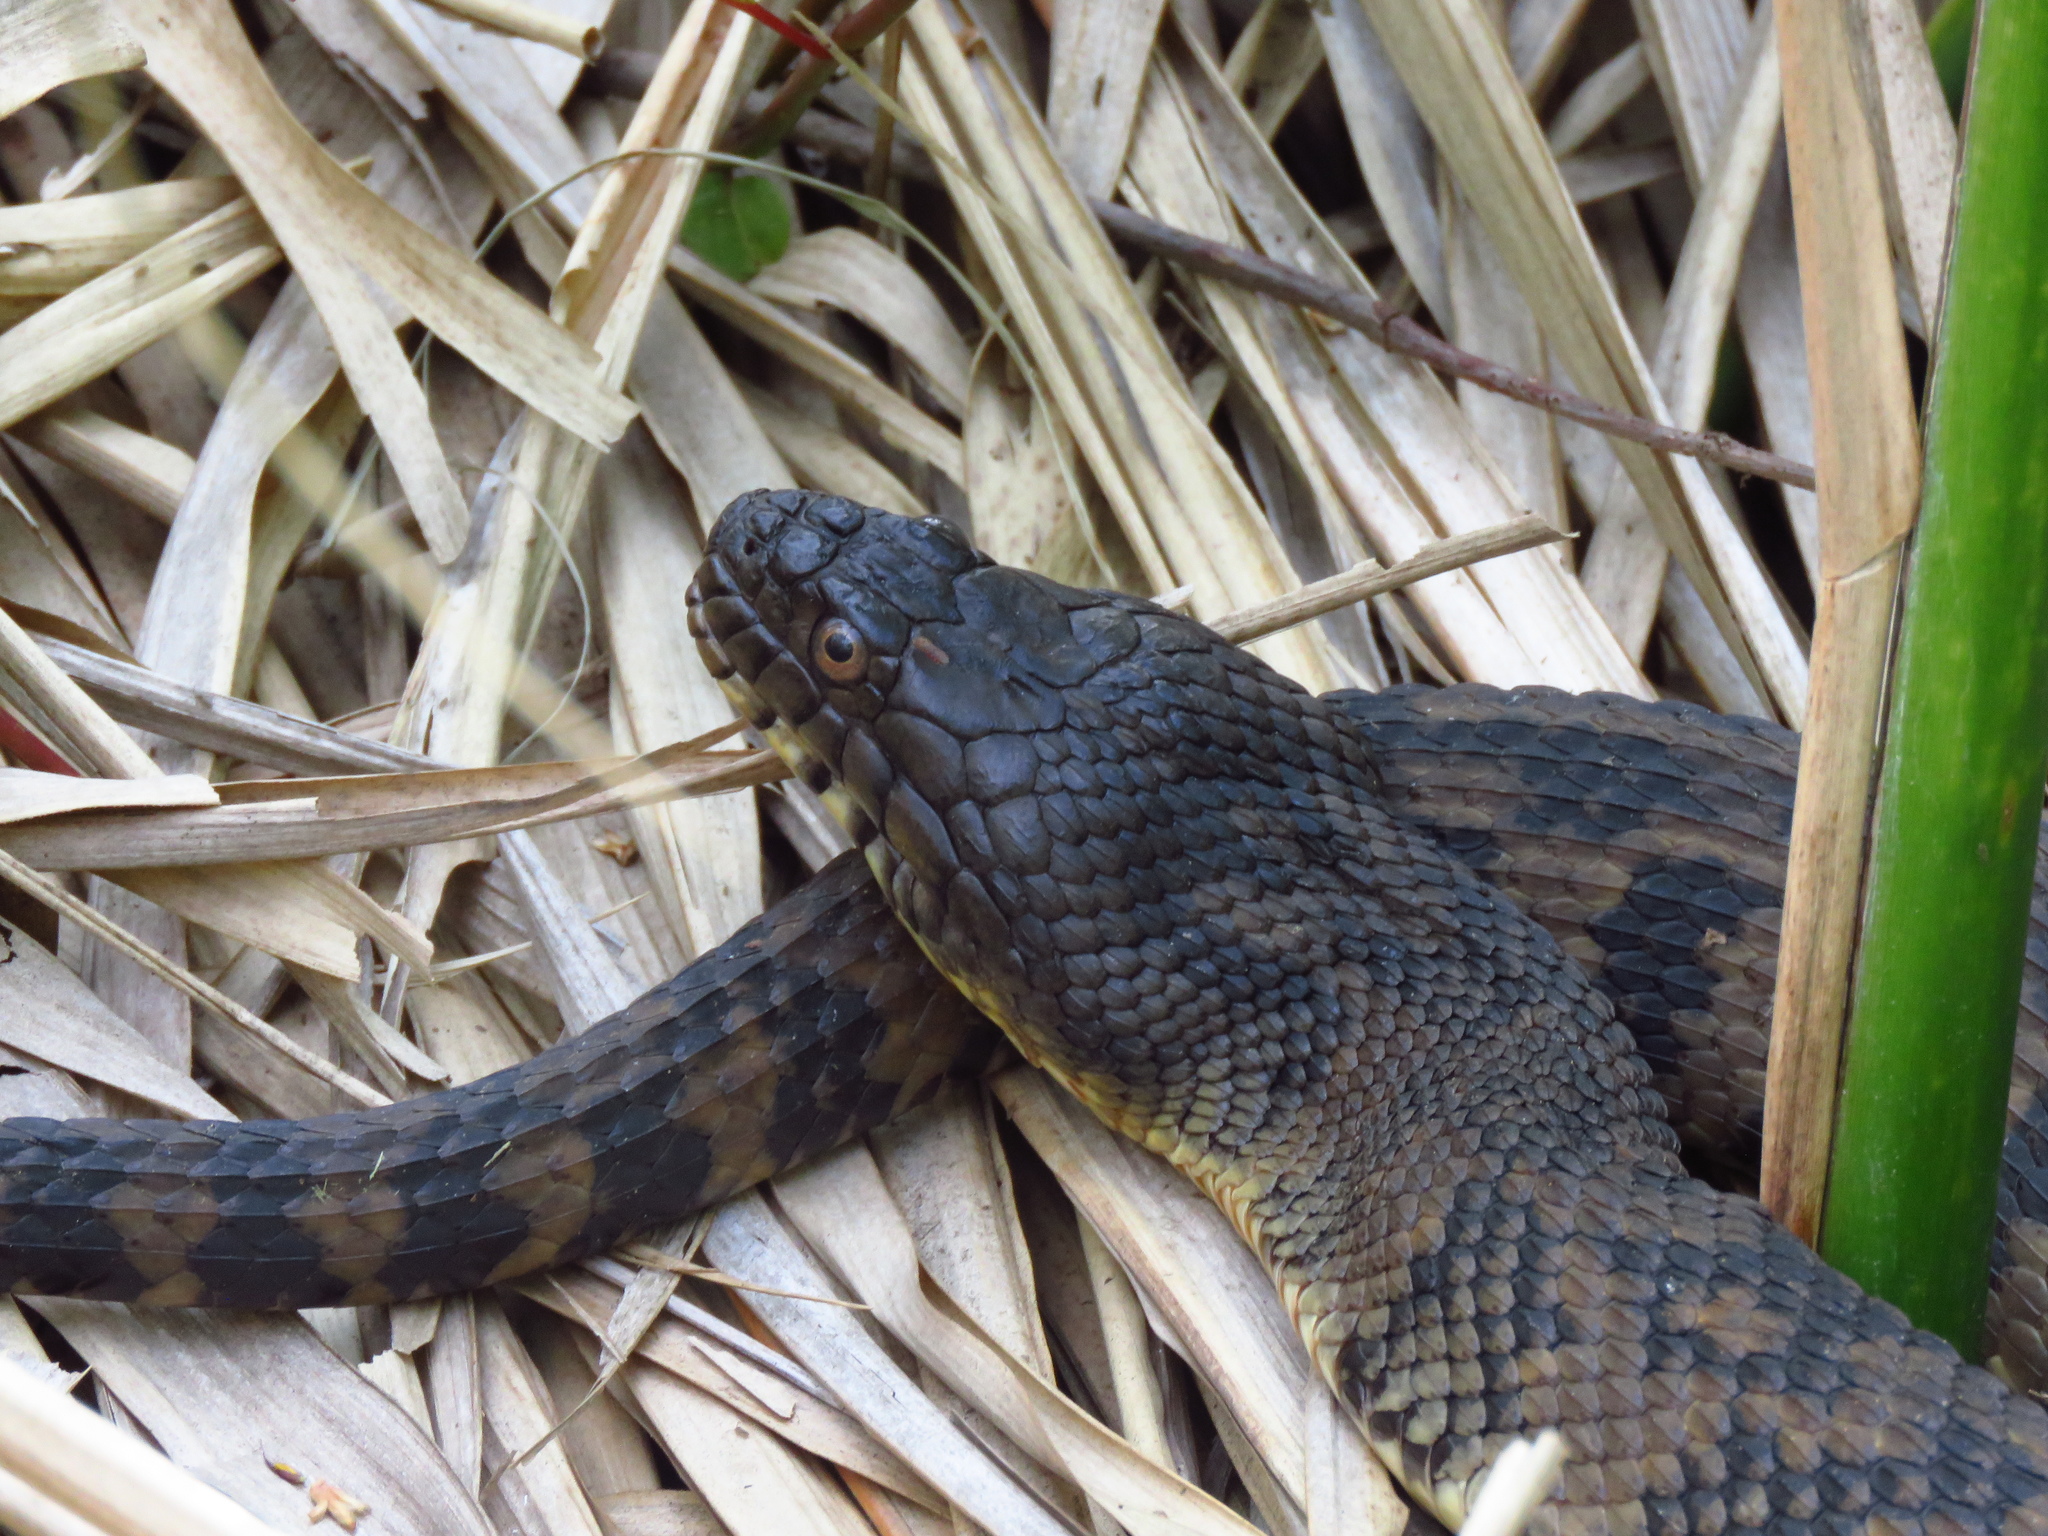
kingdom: Animalia
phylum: Chordata
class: Squamata
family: Colubridae
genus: Nerodia
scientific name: Nerodia rhombifer
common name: Diamondback water snake
